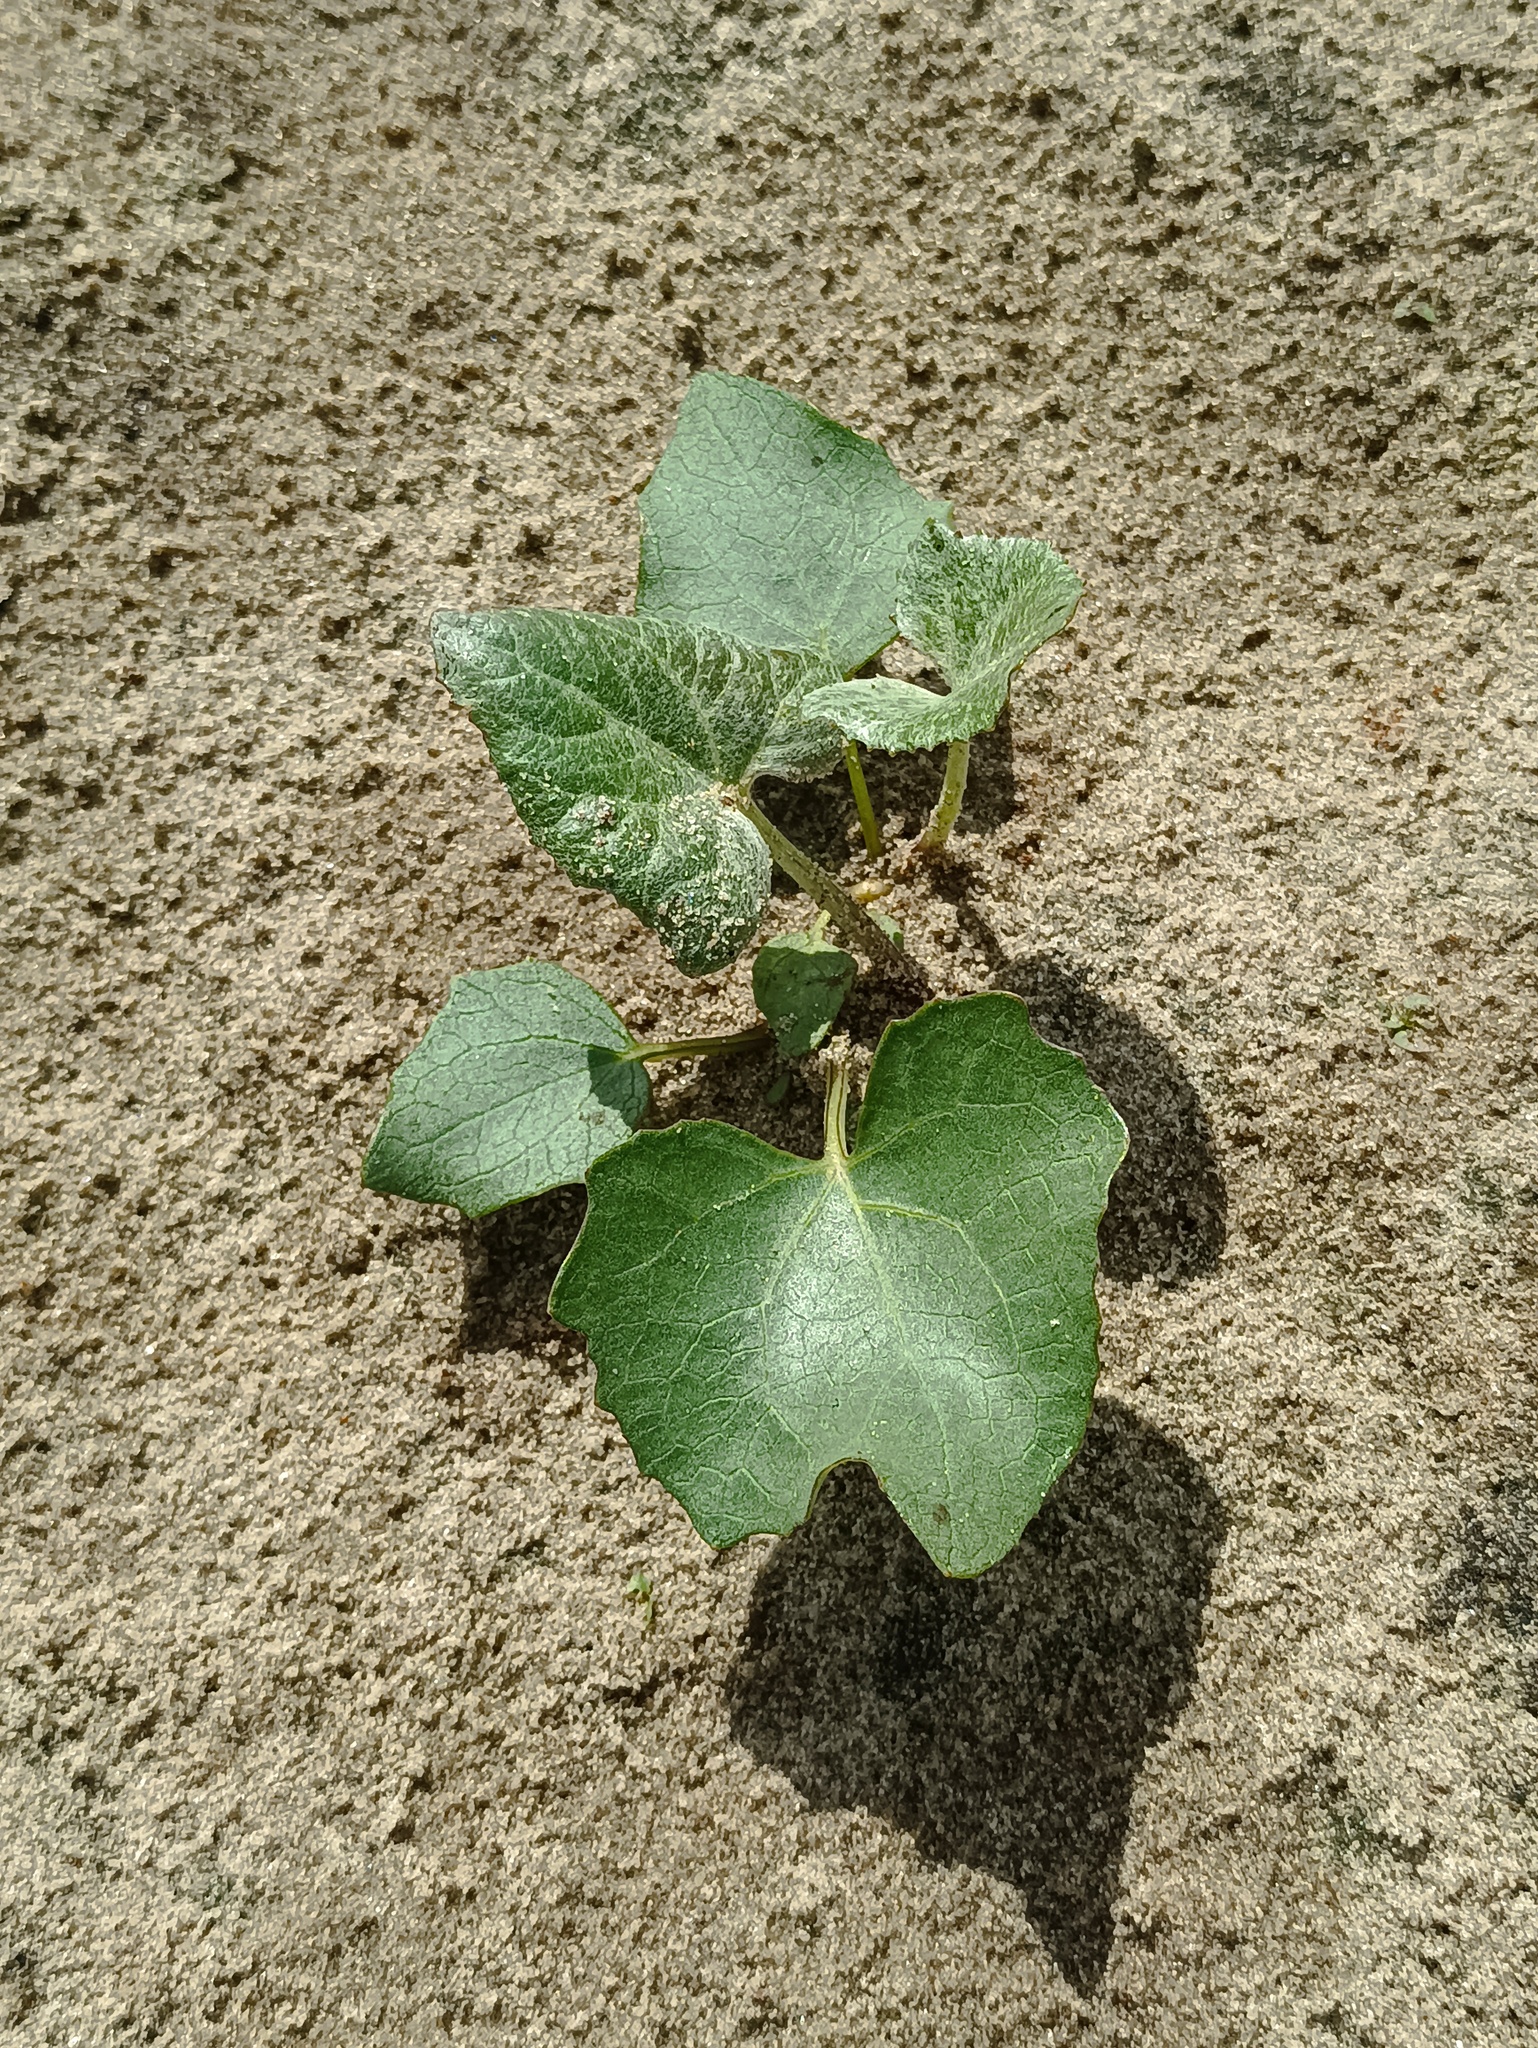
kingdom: Plantae
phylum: Tracheophyta
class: Magnoliopsida
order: Asterales
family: Asteraceae
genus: Petasites
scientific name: Petasites spurius
